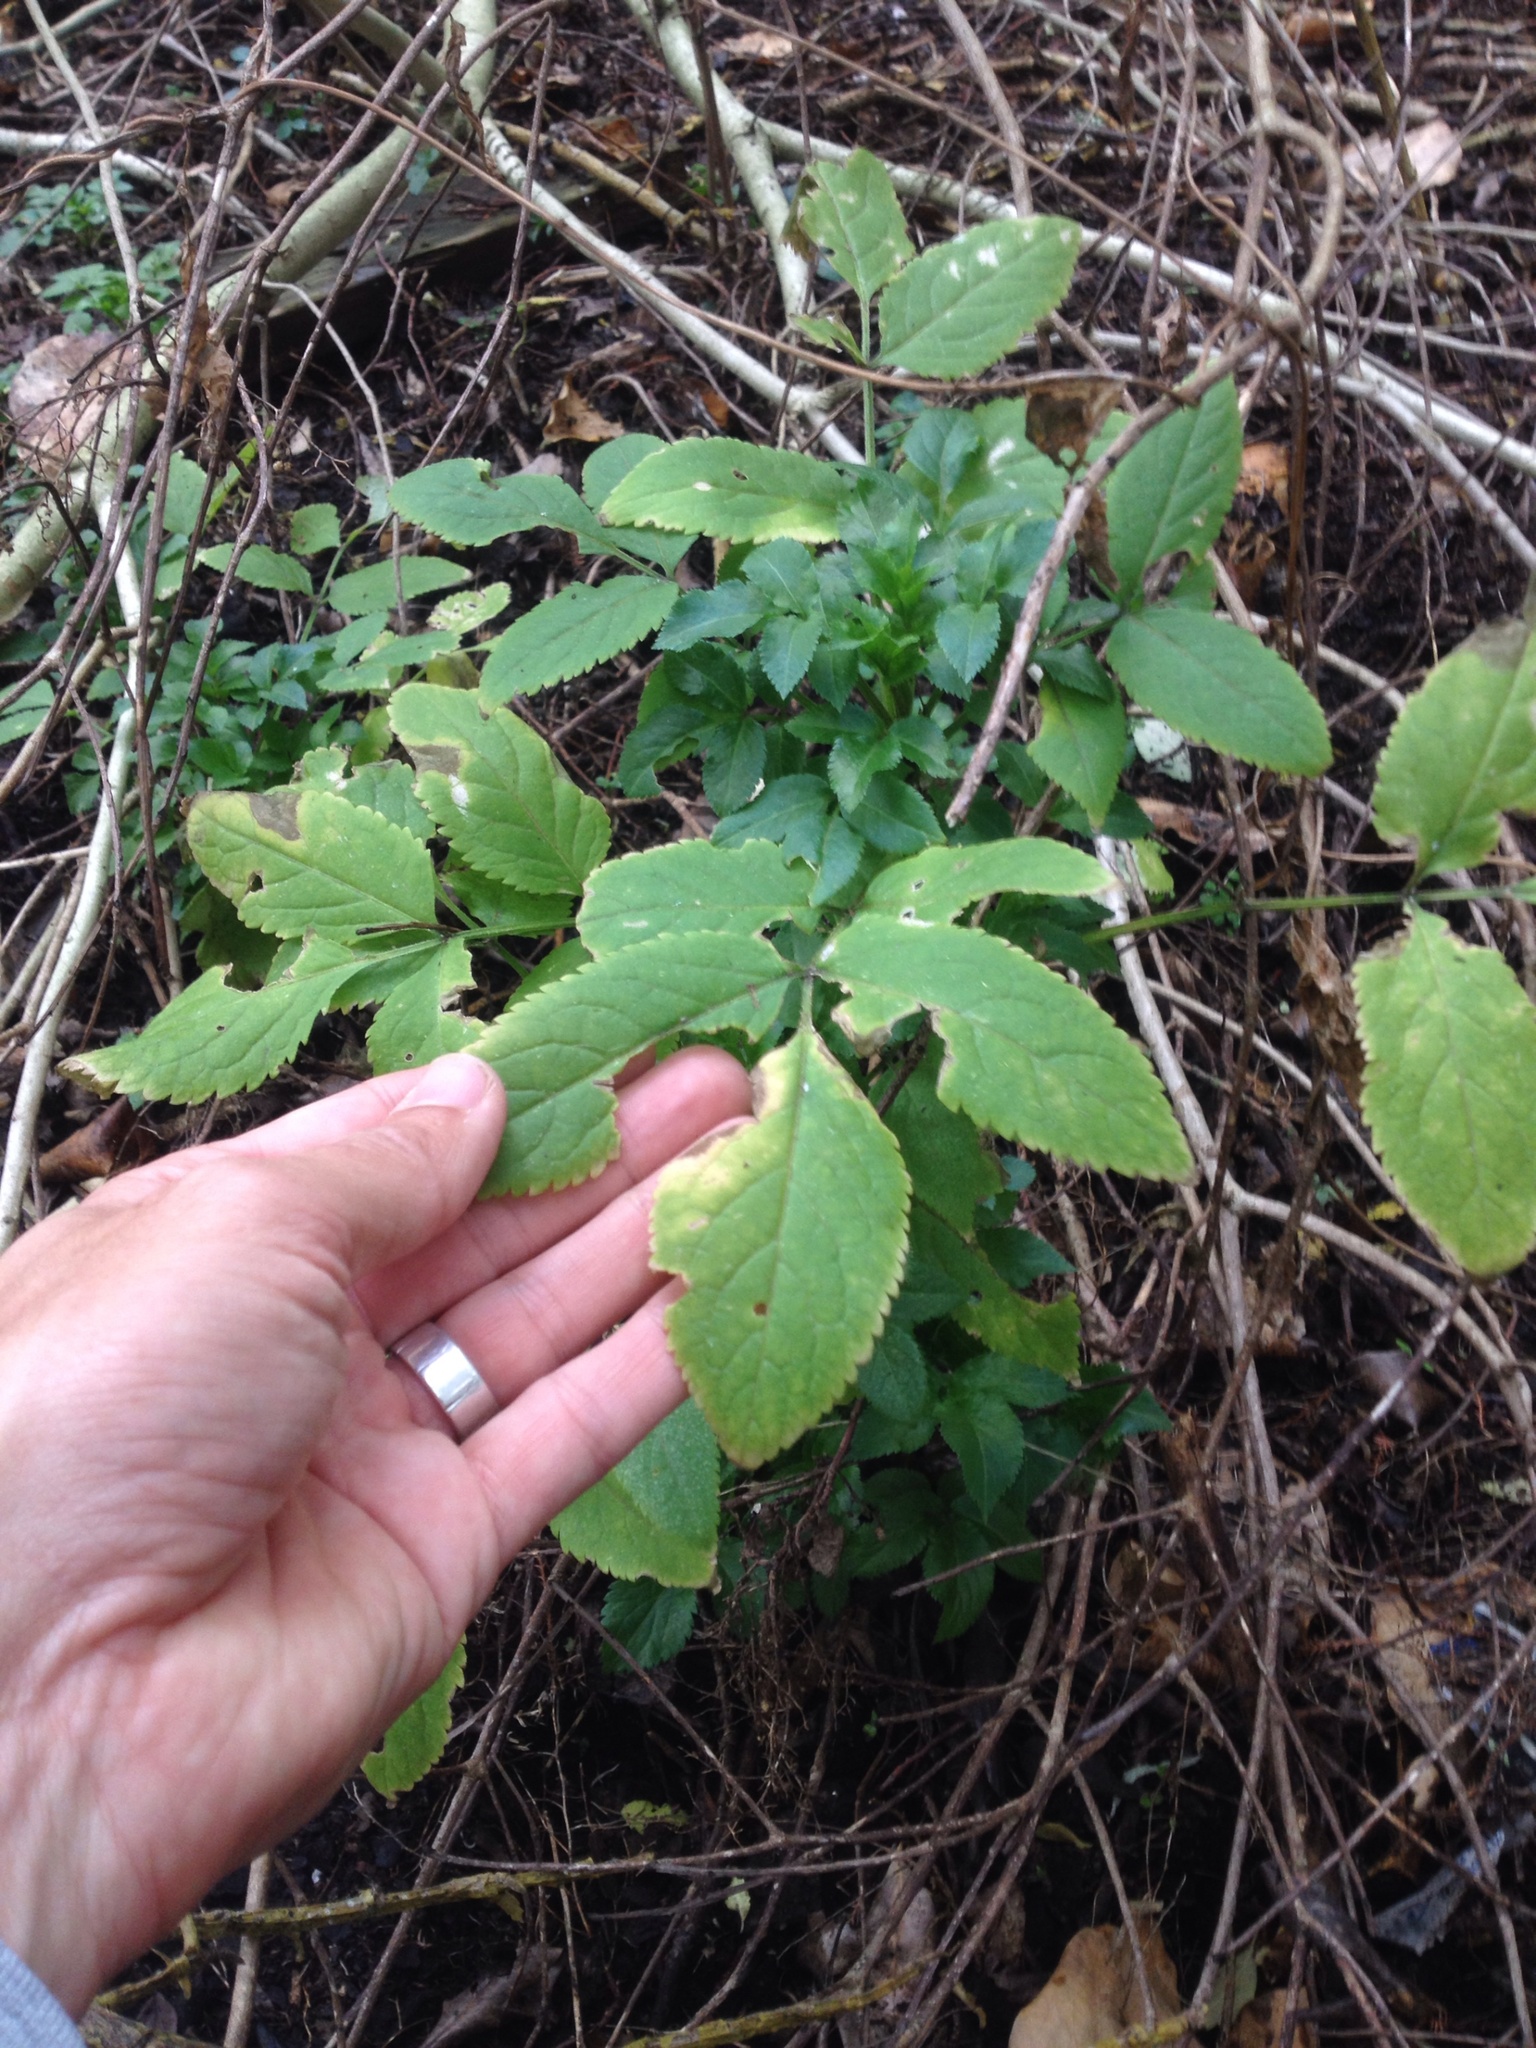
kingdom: Plantae
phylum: Tracheophyta
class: Magnoliopsida
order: Dipsacales
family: Viburnaceae
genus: Sambucus
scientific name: Sambucus nigra
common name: Elder
